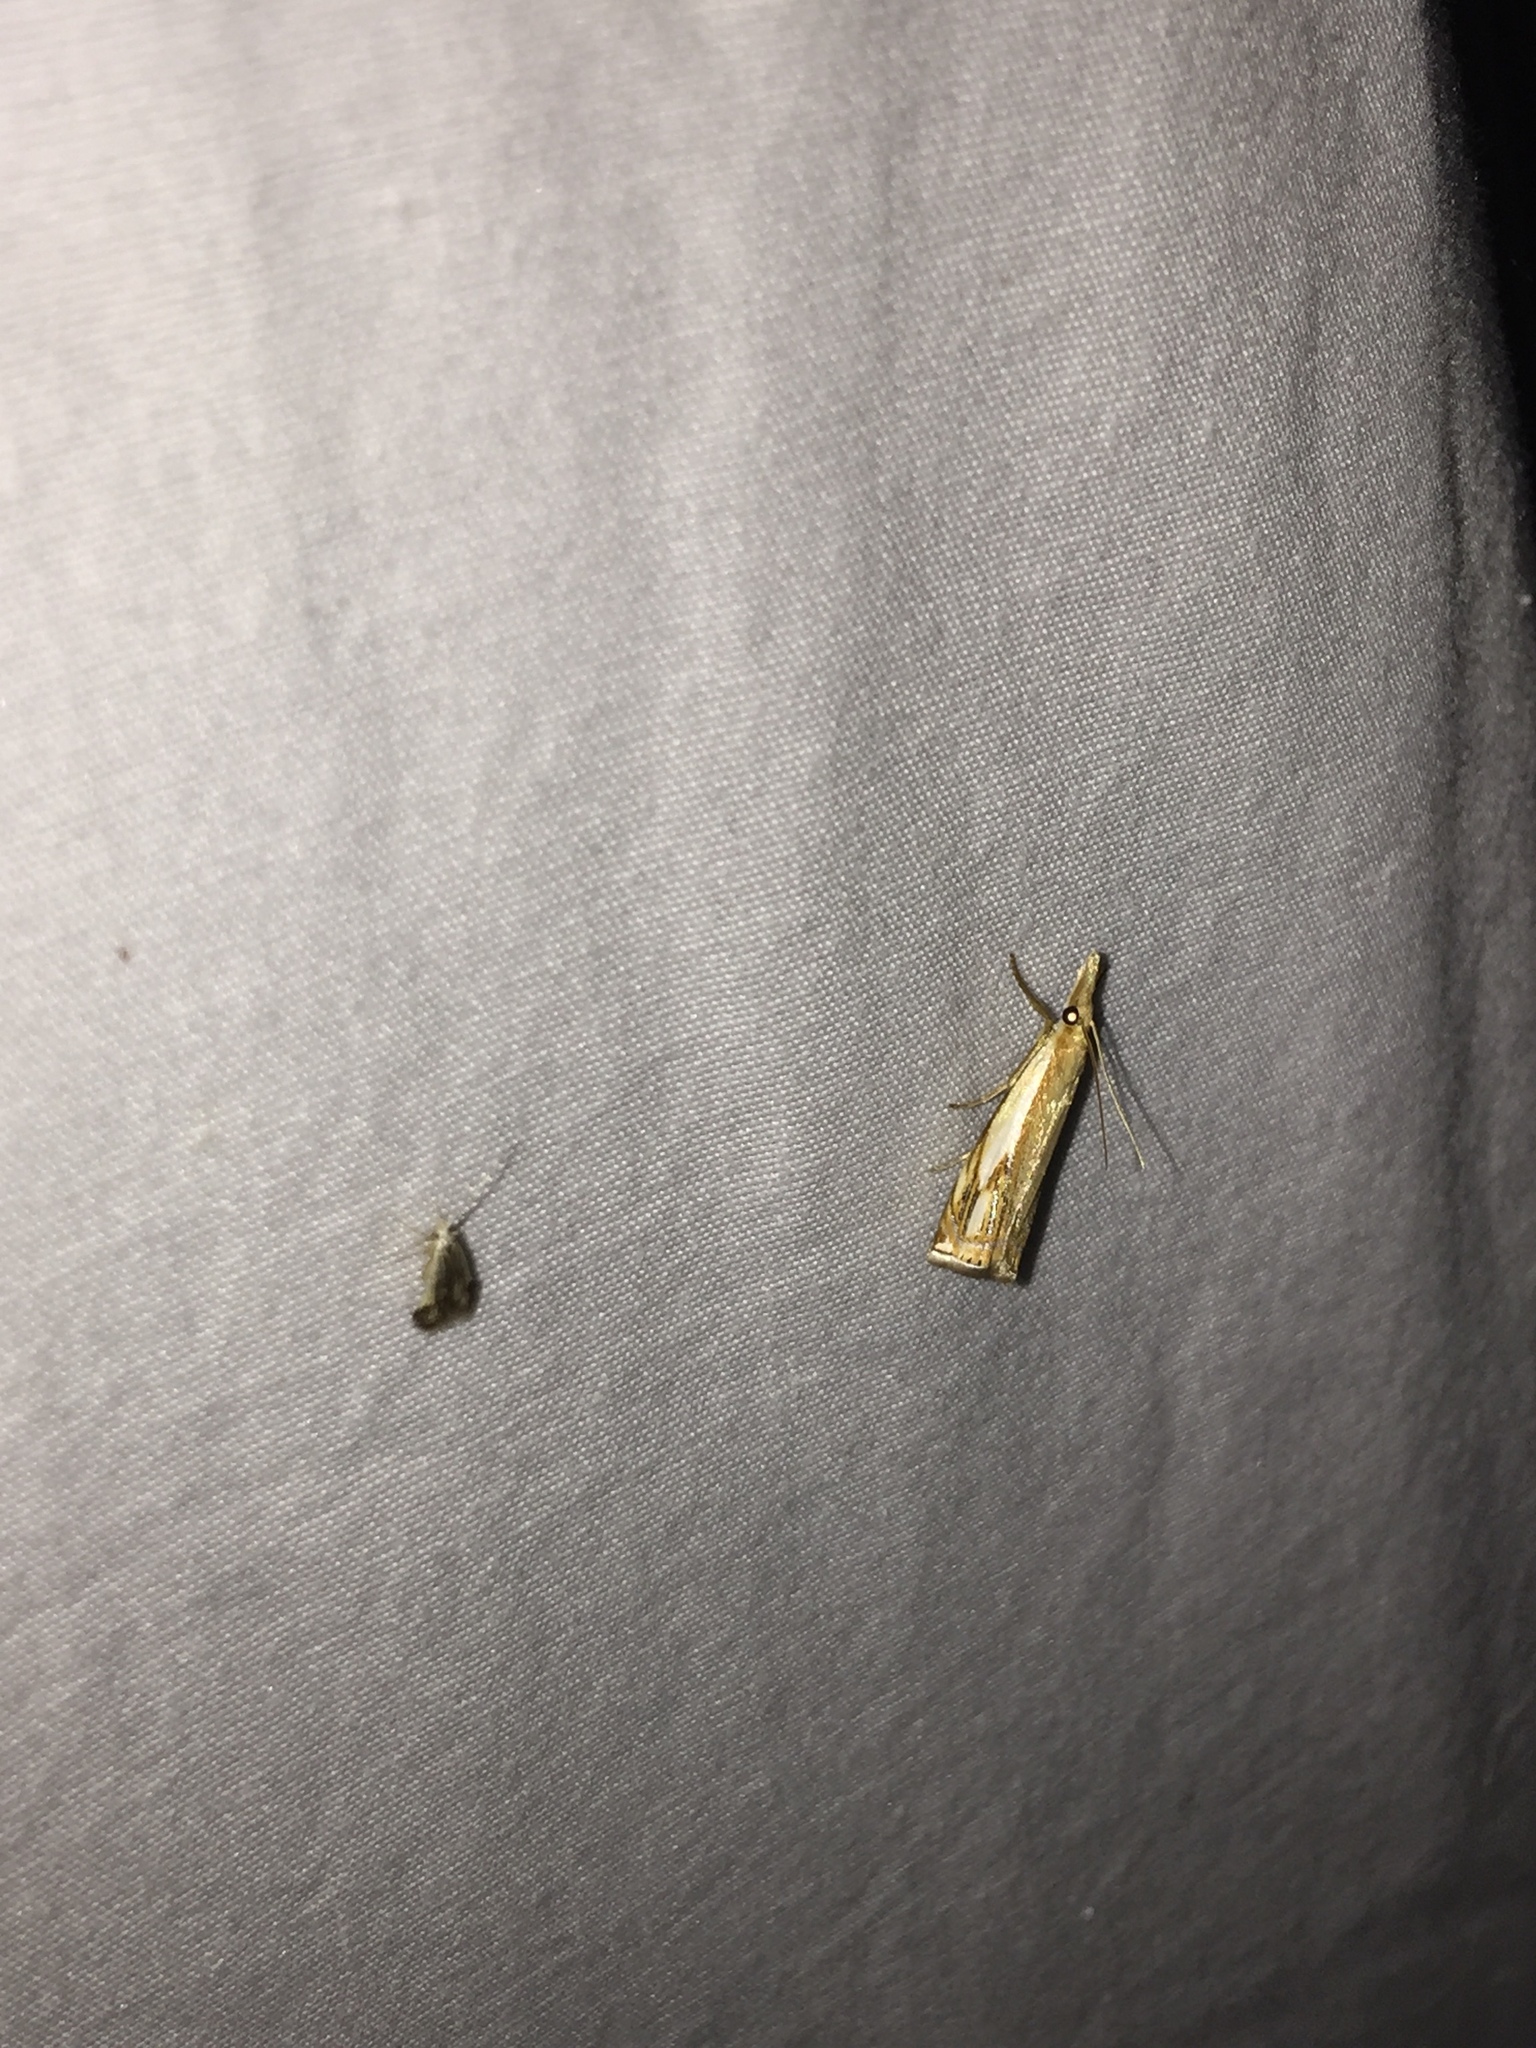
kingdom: Animalia
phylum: Arthropoda
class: Insecta
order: Lepidoptera
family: Crambidae
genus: Crambus
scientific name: Crambus praefectellus
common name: Common grass-veneer
